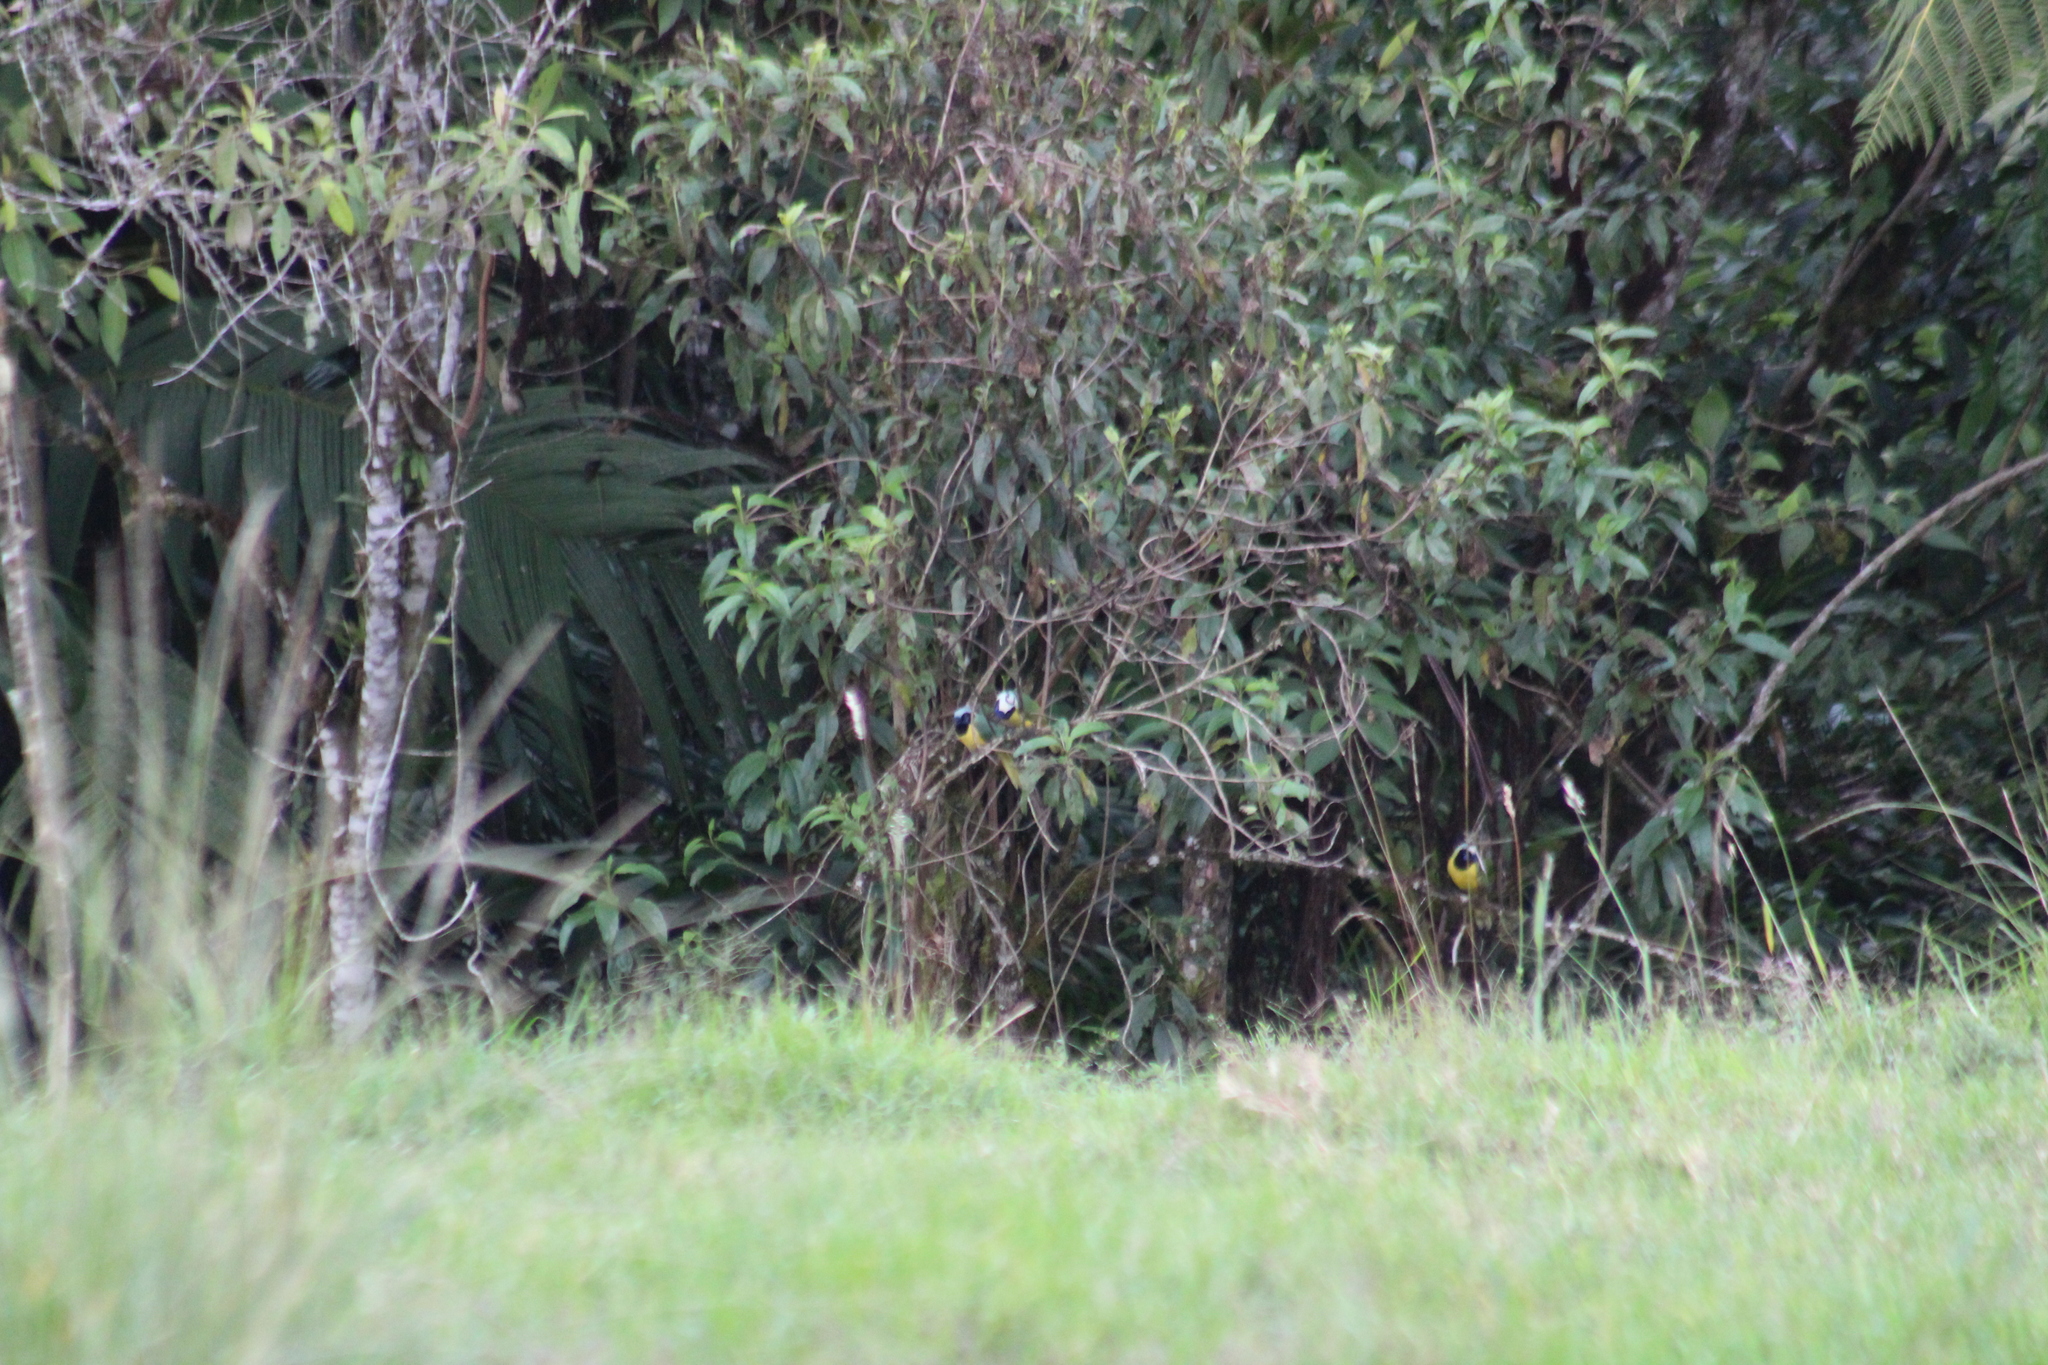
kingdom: Animalia
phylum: Chordata
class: Aves
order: Passeriformes
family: Corvidae
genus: Cyanocorax
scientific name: Cyanocorax yncas
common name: Green jay
